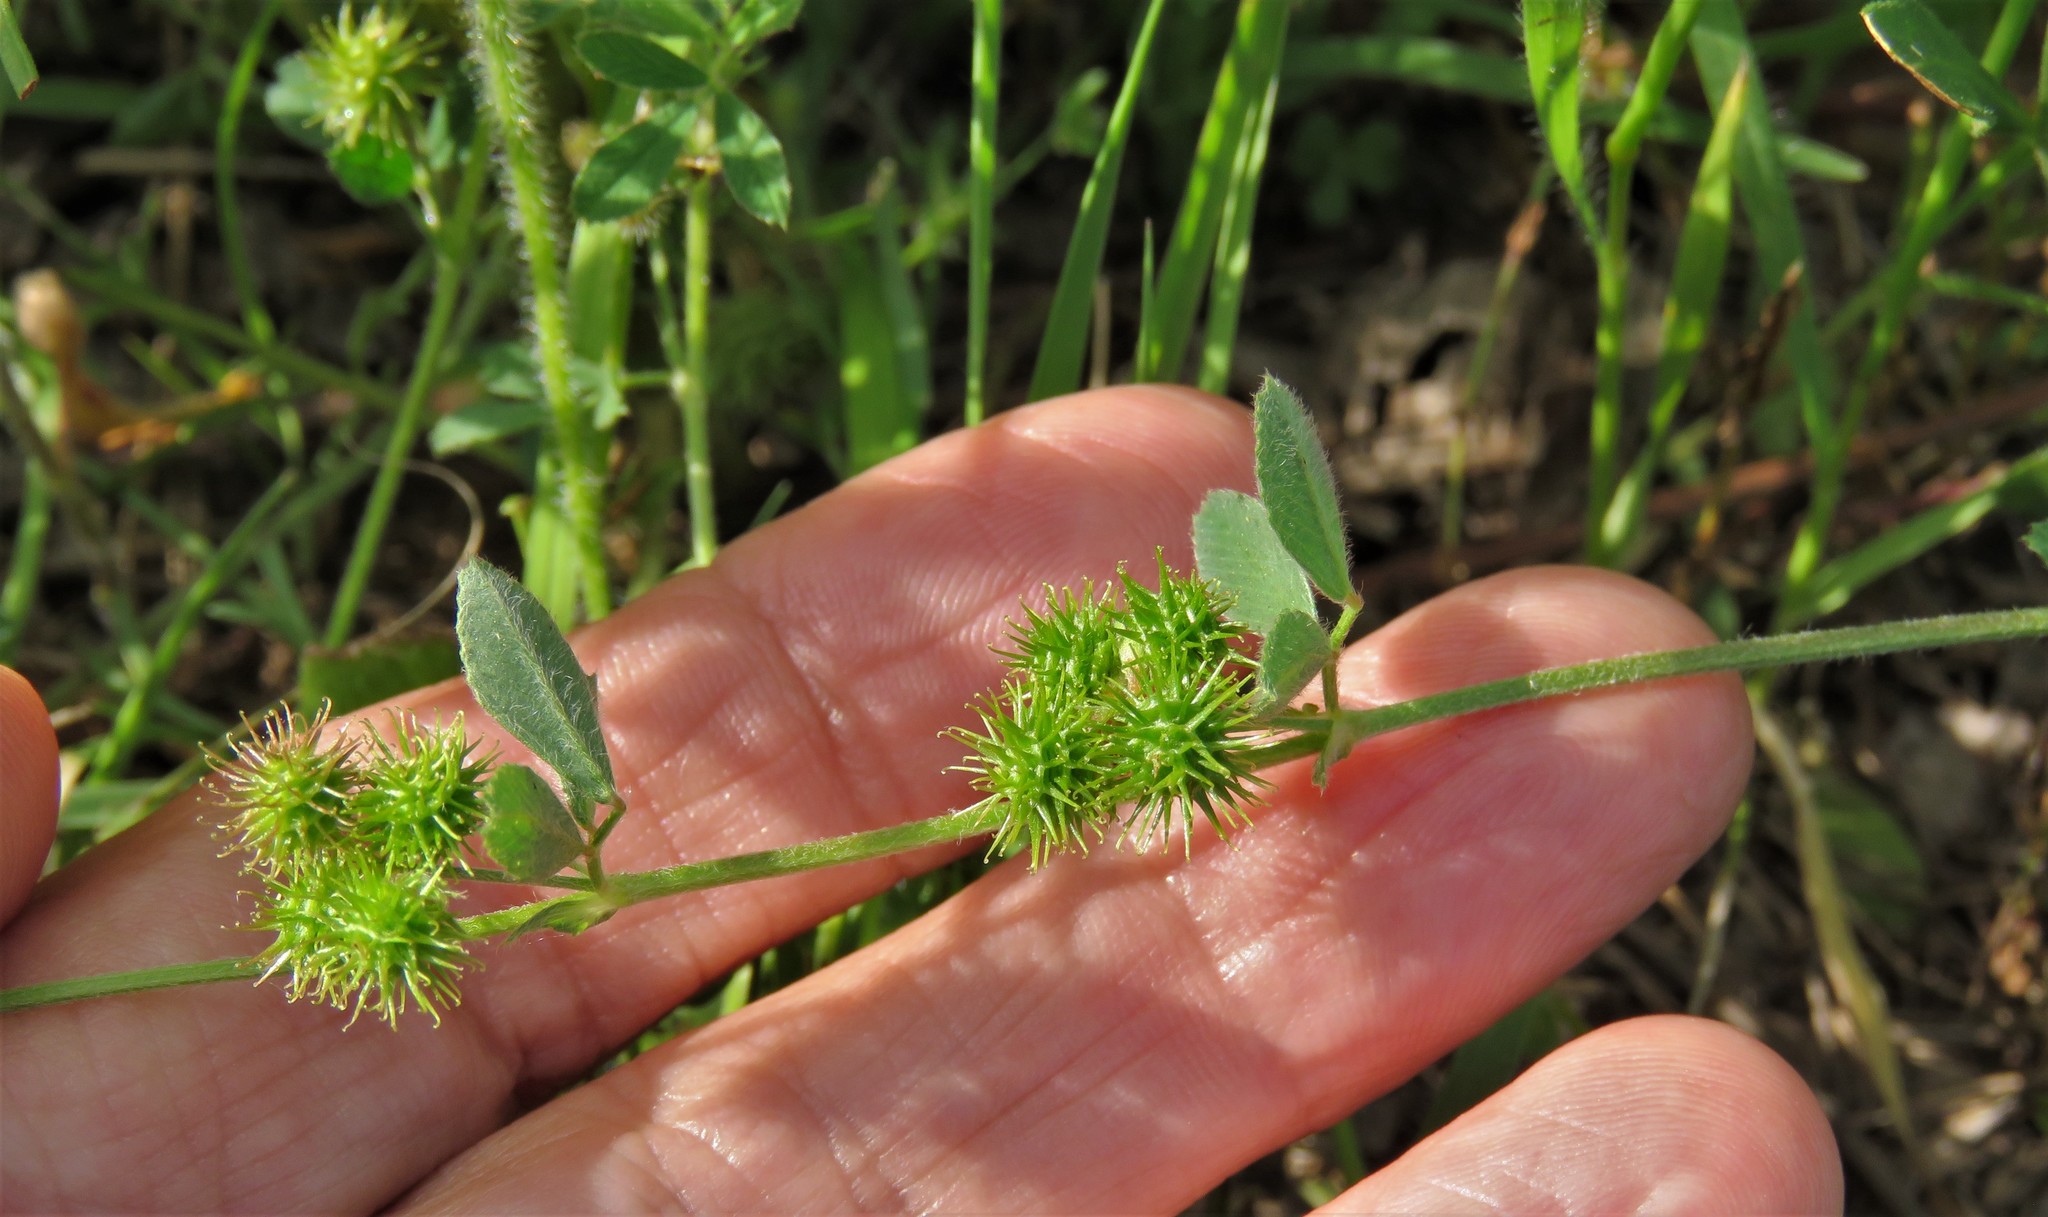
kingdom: Plantae
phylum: Tracheophyta
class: Magnoliopsida
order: Fabales
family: Fabaceae
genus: Medicago
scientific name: Medicago polymorpha
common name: Burclover
